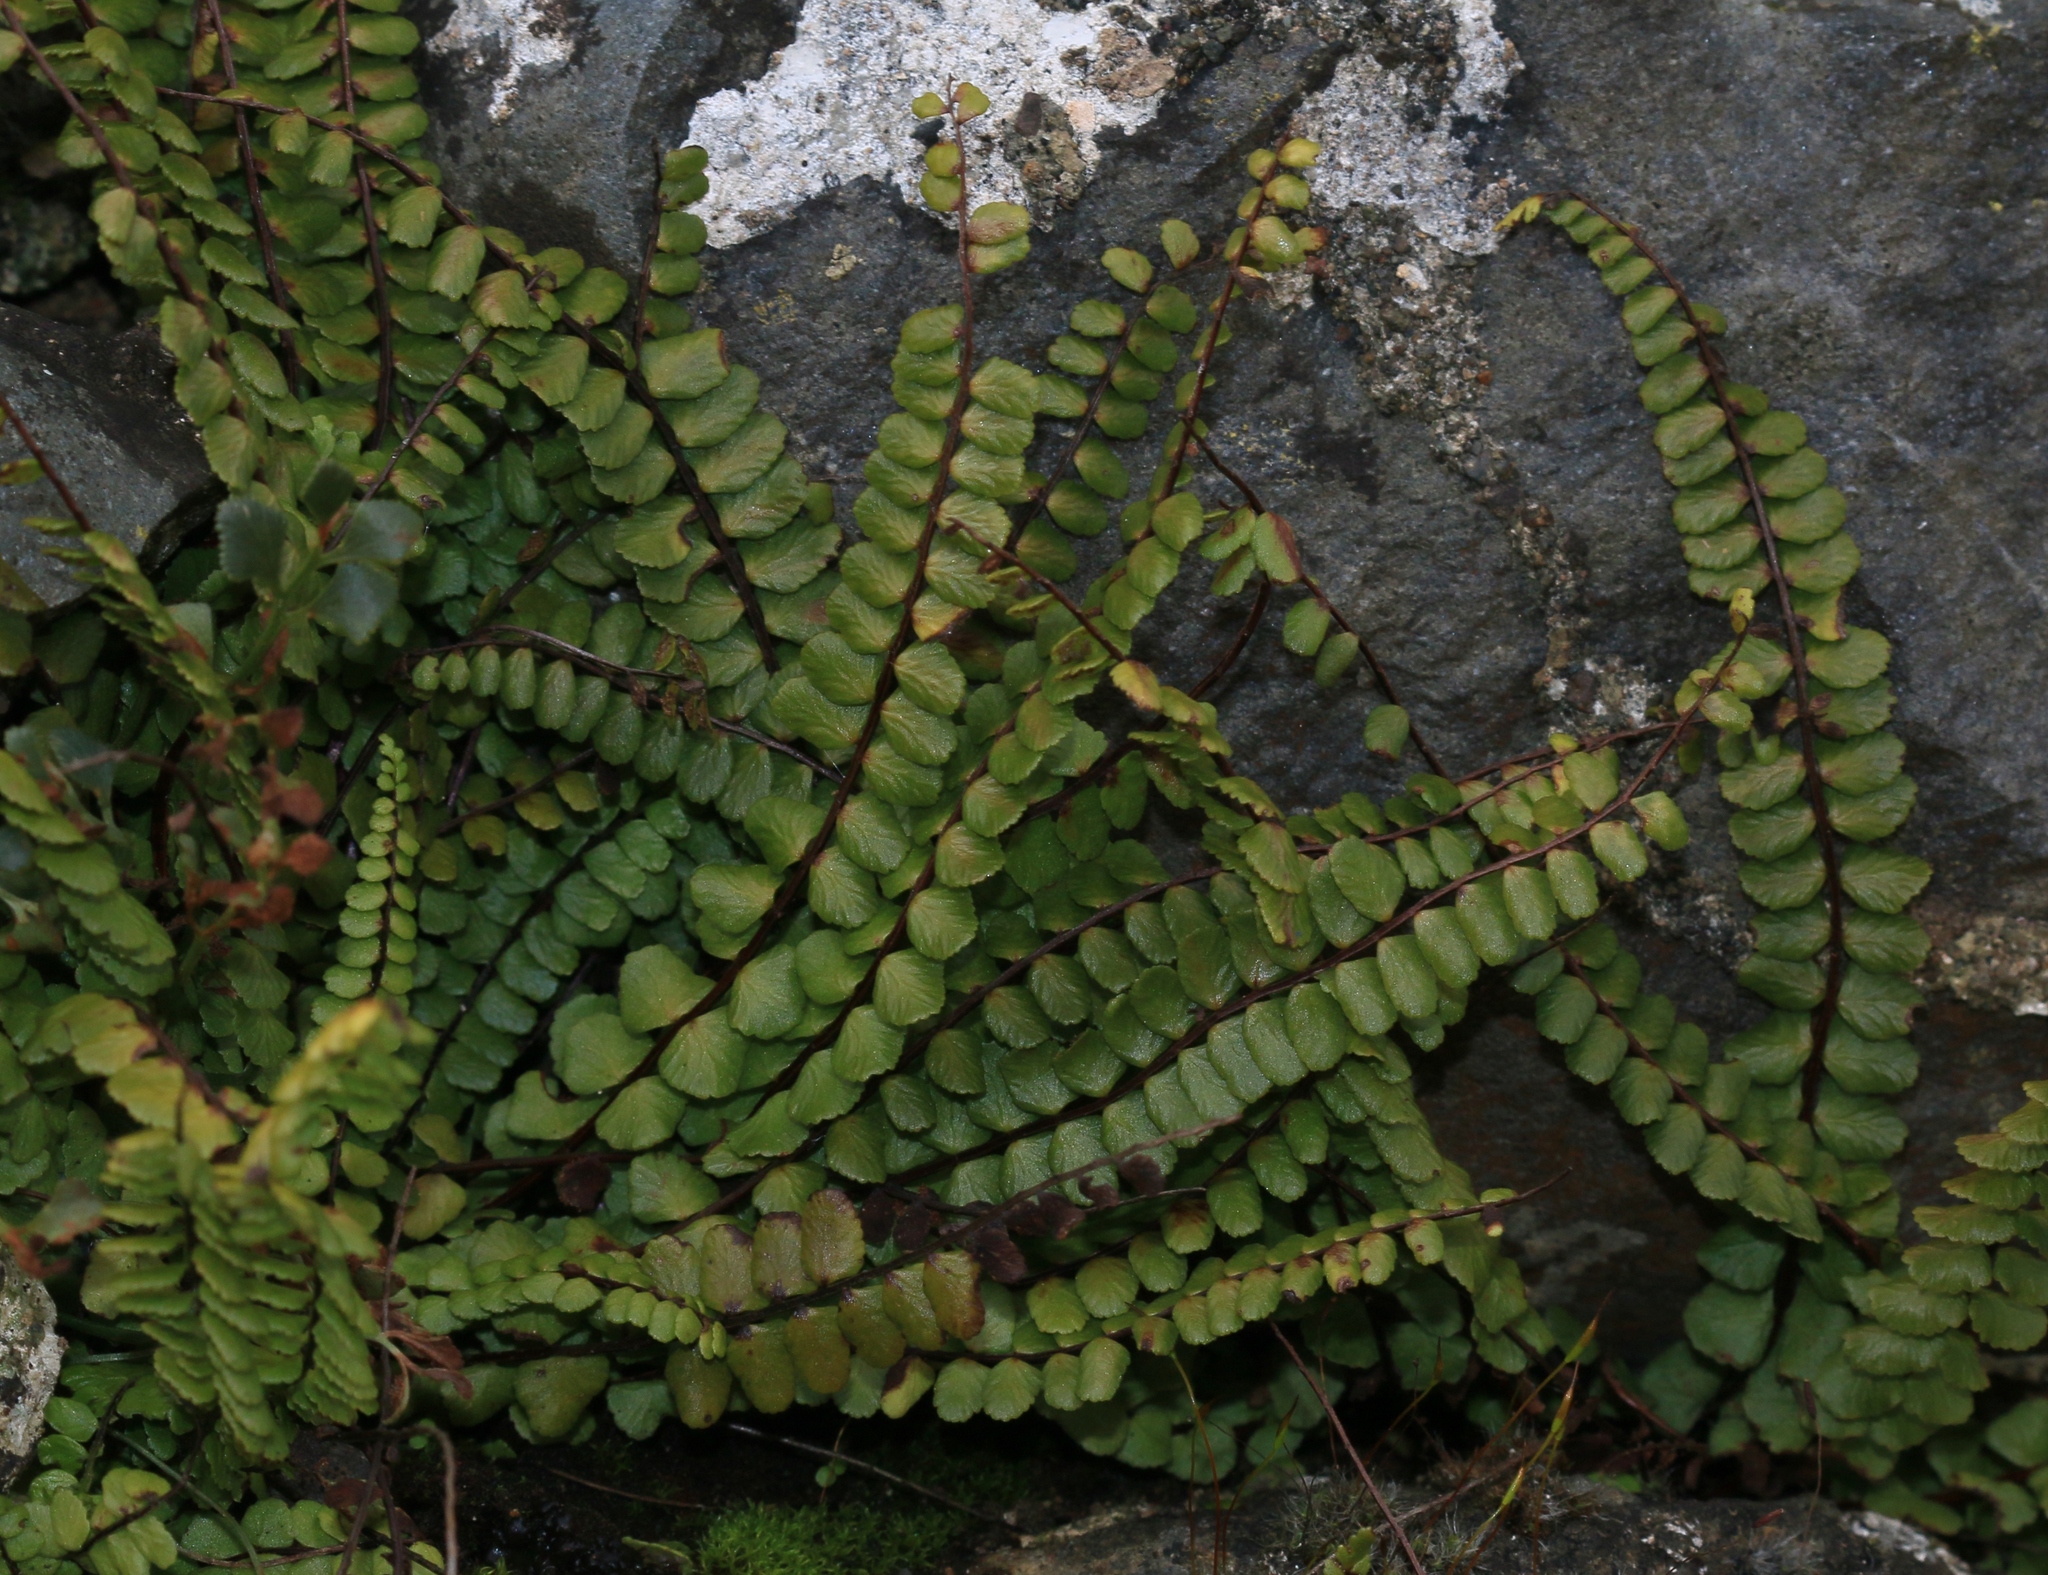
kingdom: Plantae
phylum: Tracheophyta
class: Polypodiopsida
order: Polypodiales
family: Aspleniaceae
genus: Asplenium
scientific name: Asplenium trichomanes
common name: Maidenhair spleenwort
